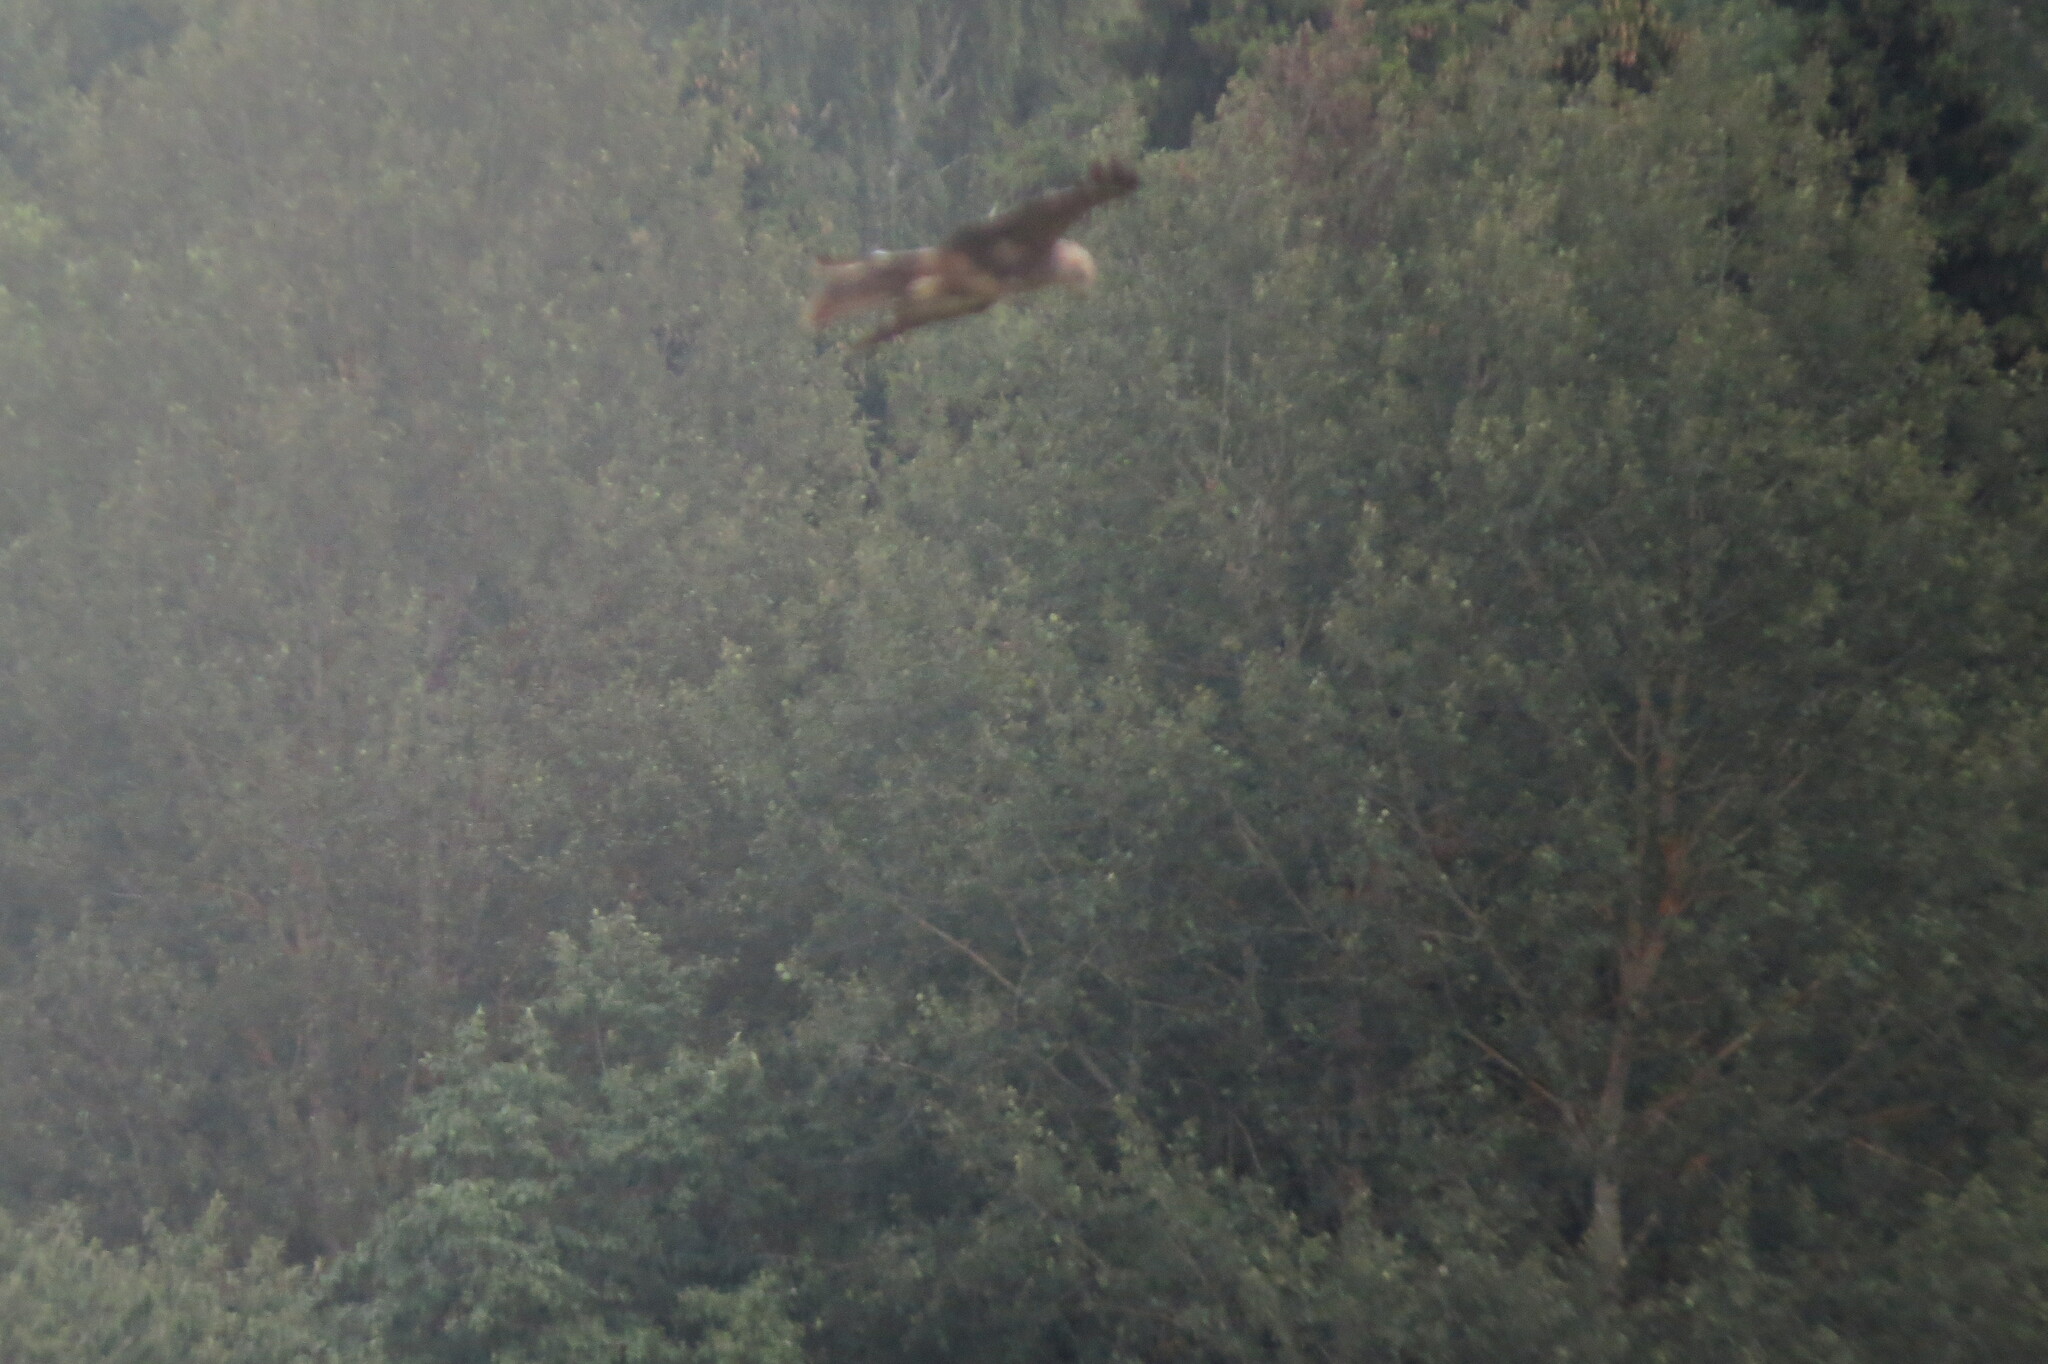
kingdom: Animalia
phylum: Chordata
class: Aves
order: Accipitriformes
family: Accipitridae
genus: Milvus
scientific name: Milvus migrans
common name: Black kite
